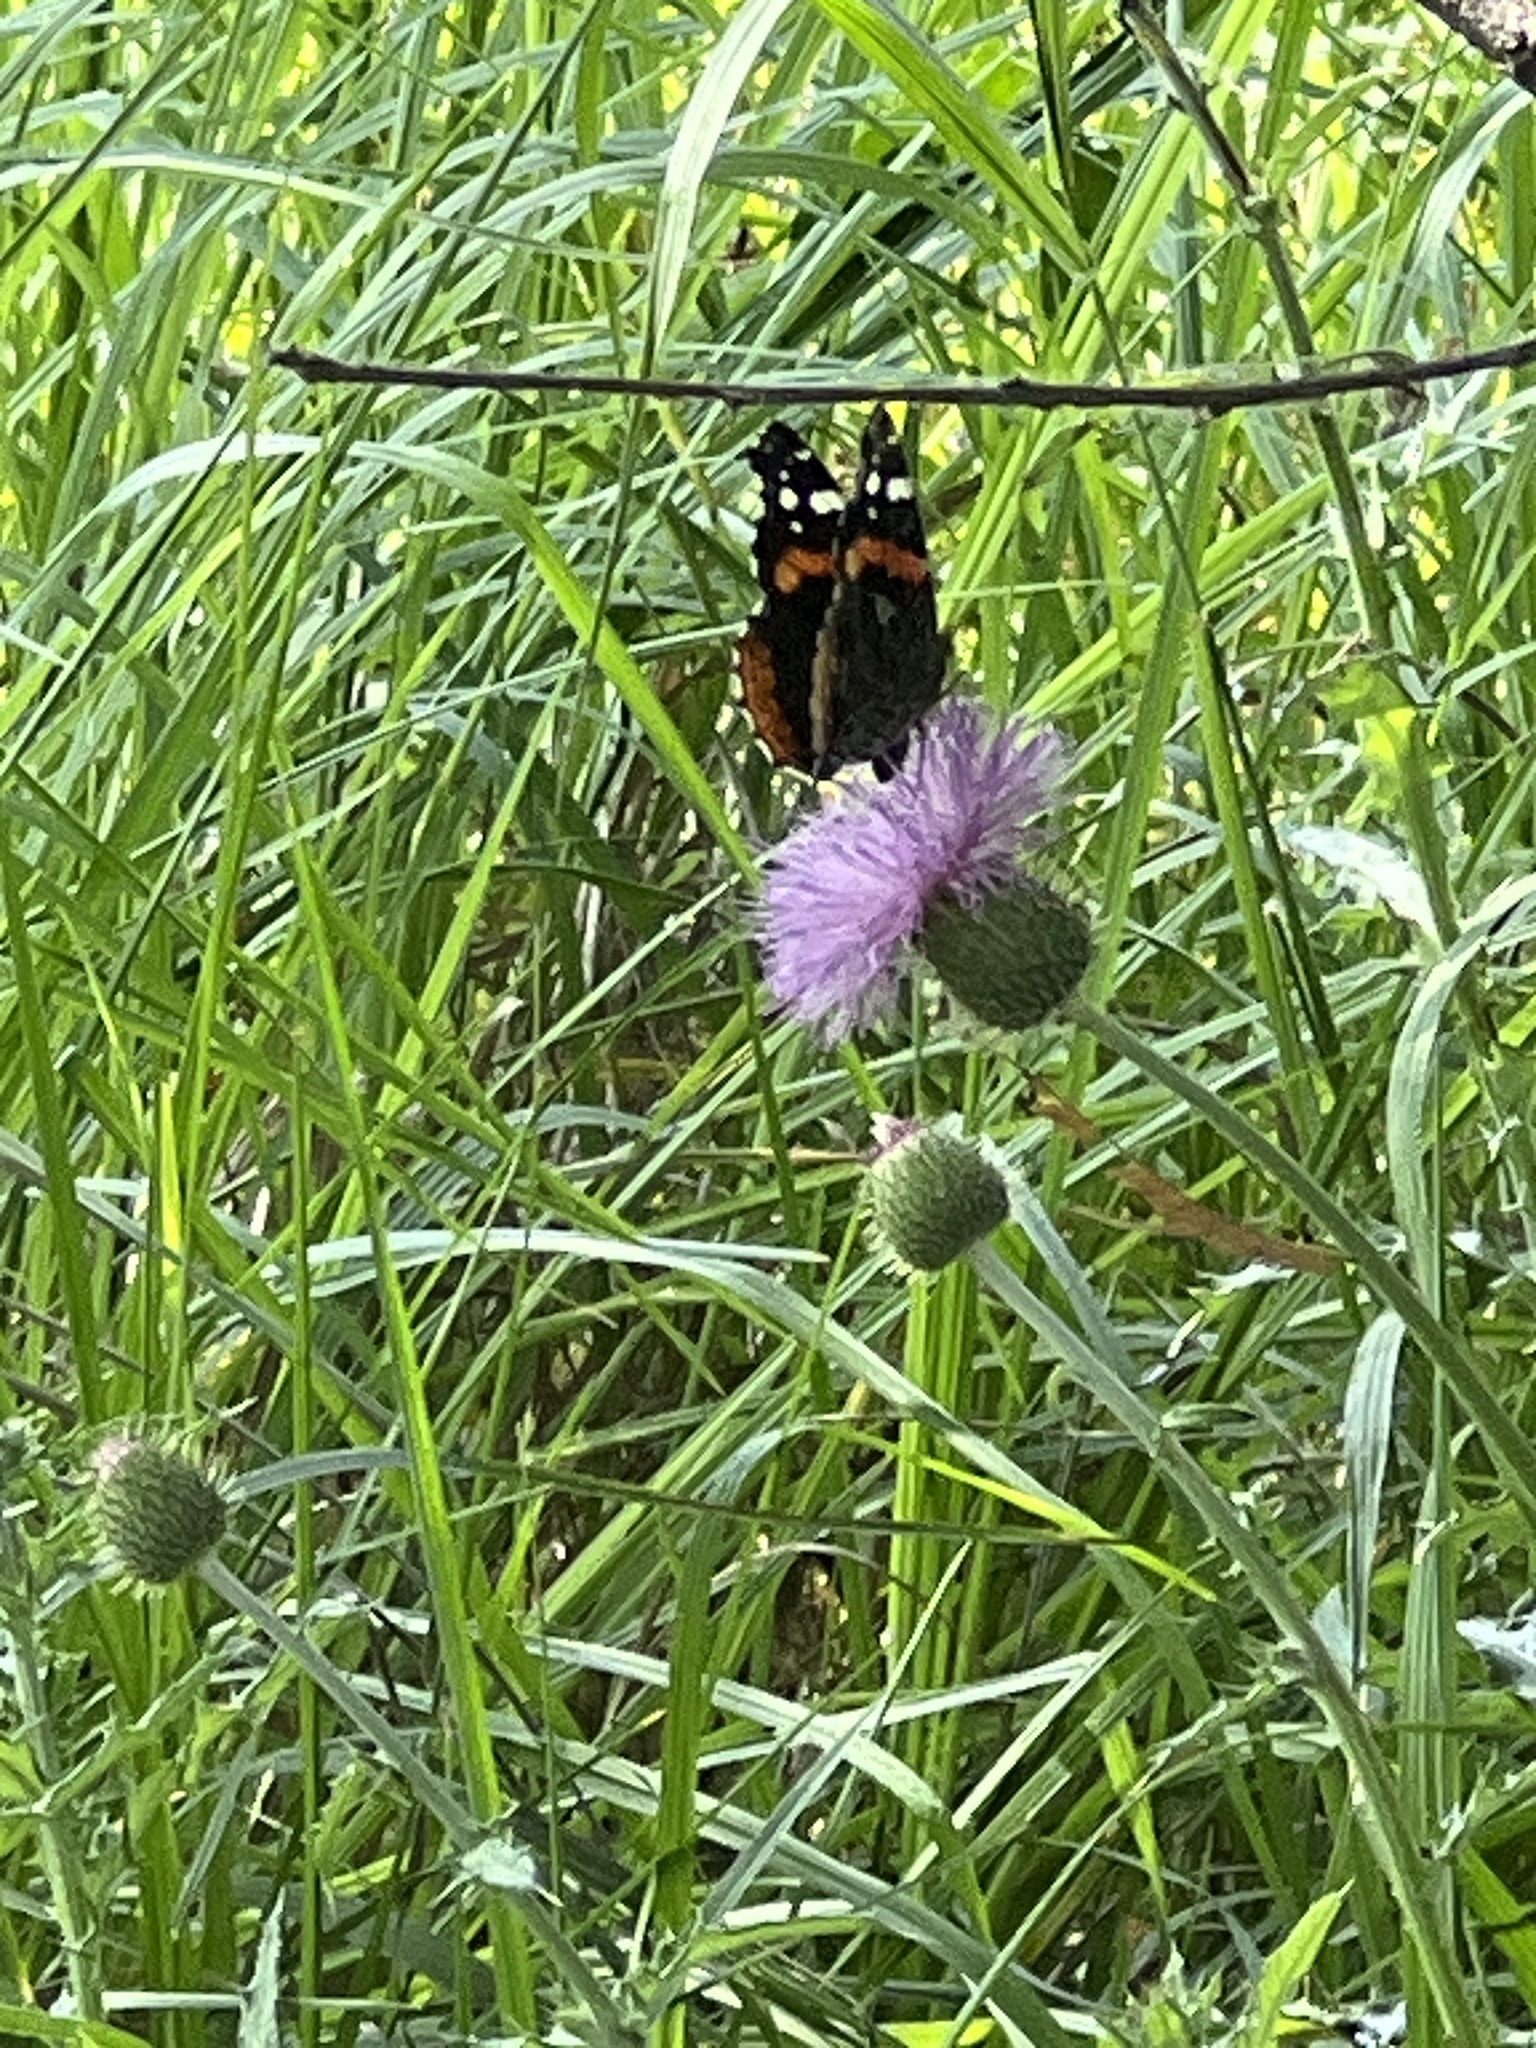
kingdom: Animalia
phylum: Arthropoda
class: Insecta
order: Lepidoptera
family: Nymphalidae
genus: Vanessa
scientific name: Vanessa atalanta
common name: Red admiral
